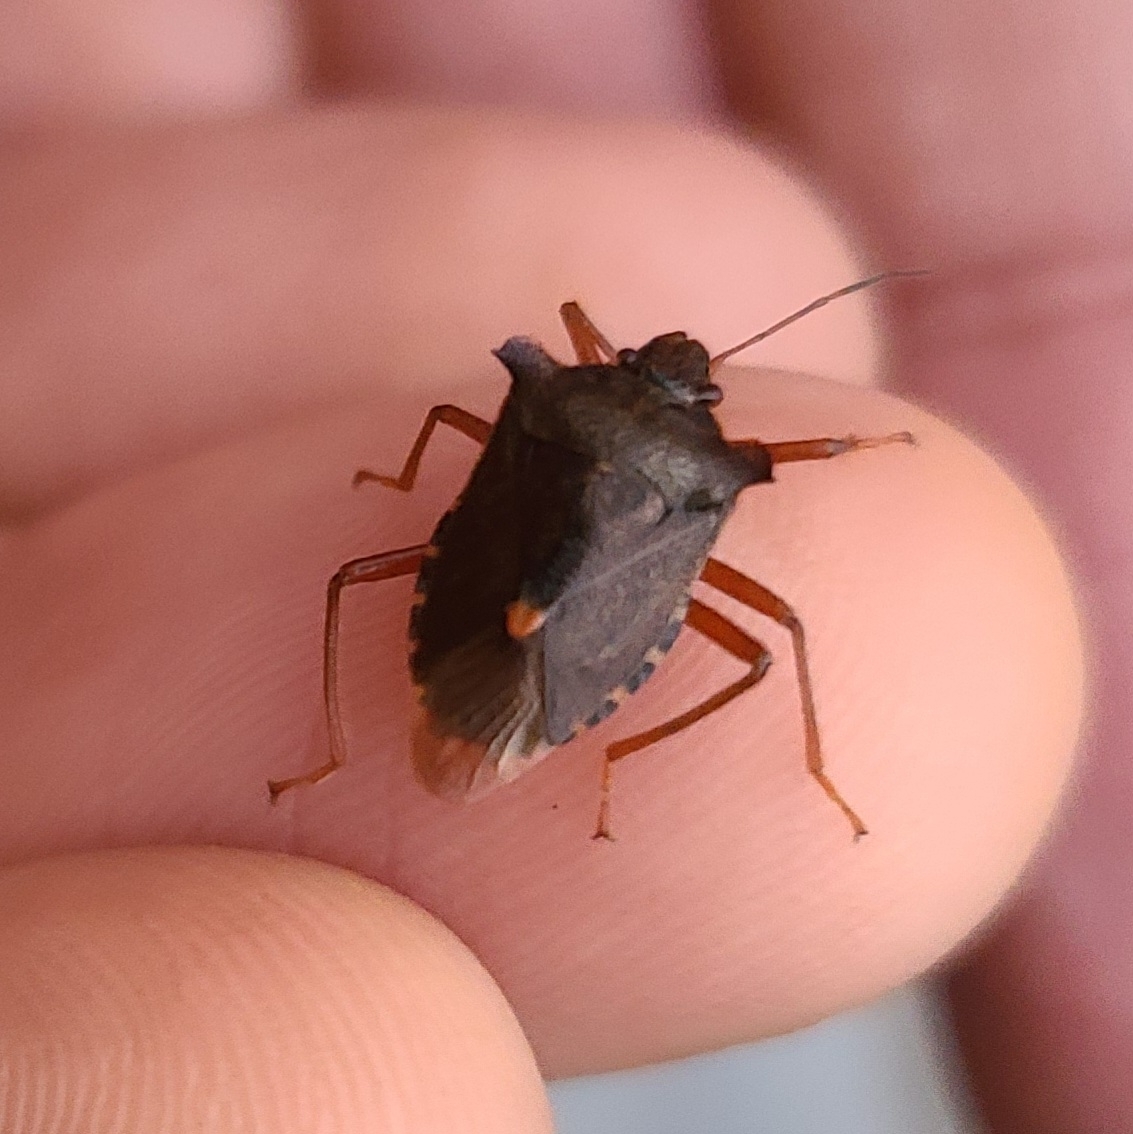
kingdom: Animalia
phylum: Arthropoda
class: Insecta
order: Hemiptera
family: Pentatomidae
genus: Pentatoma
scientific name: Pentatoma rufipes
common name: Forest bug
